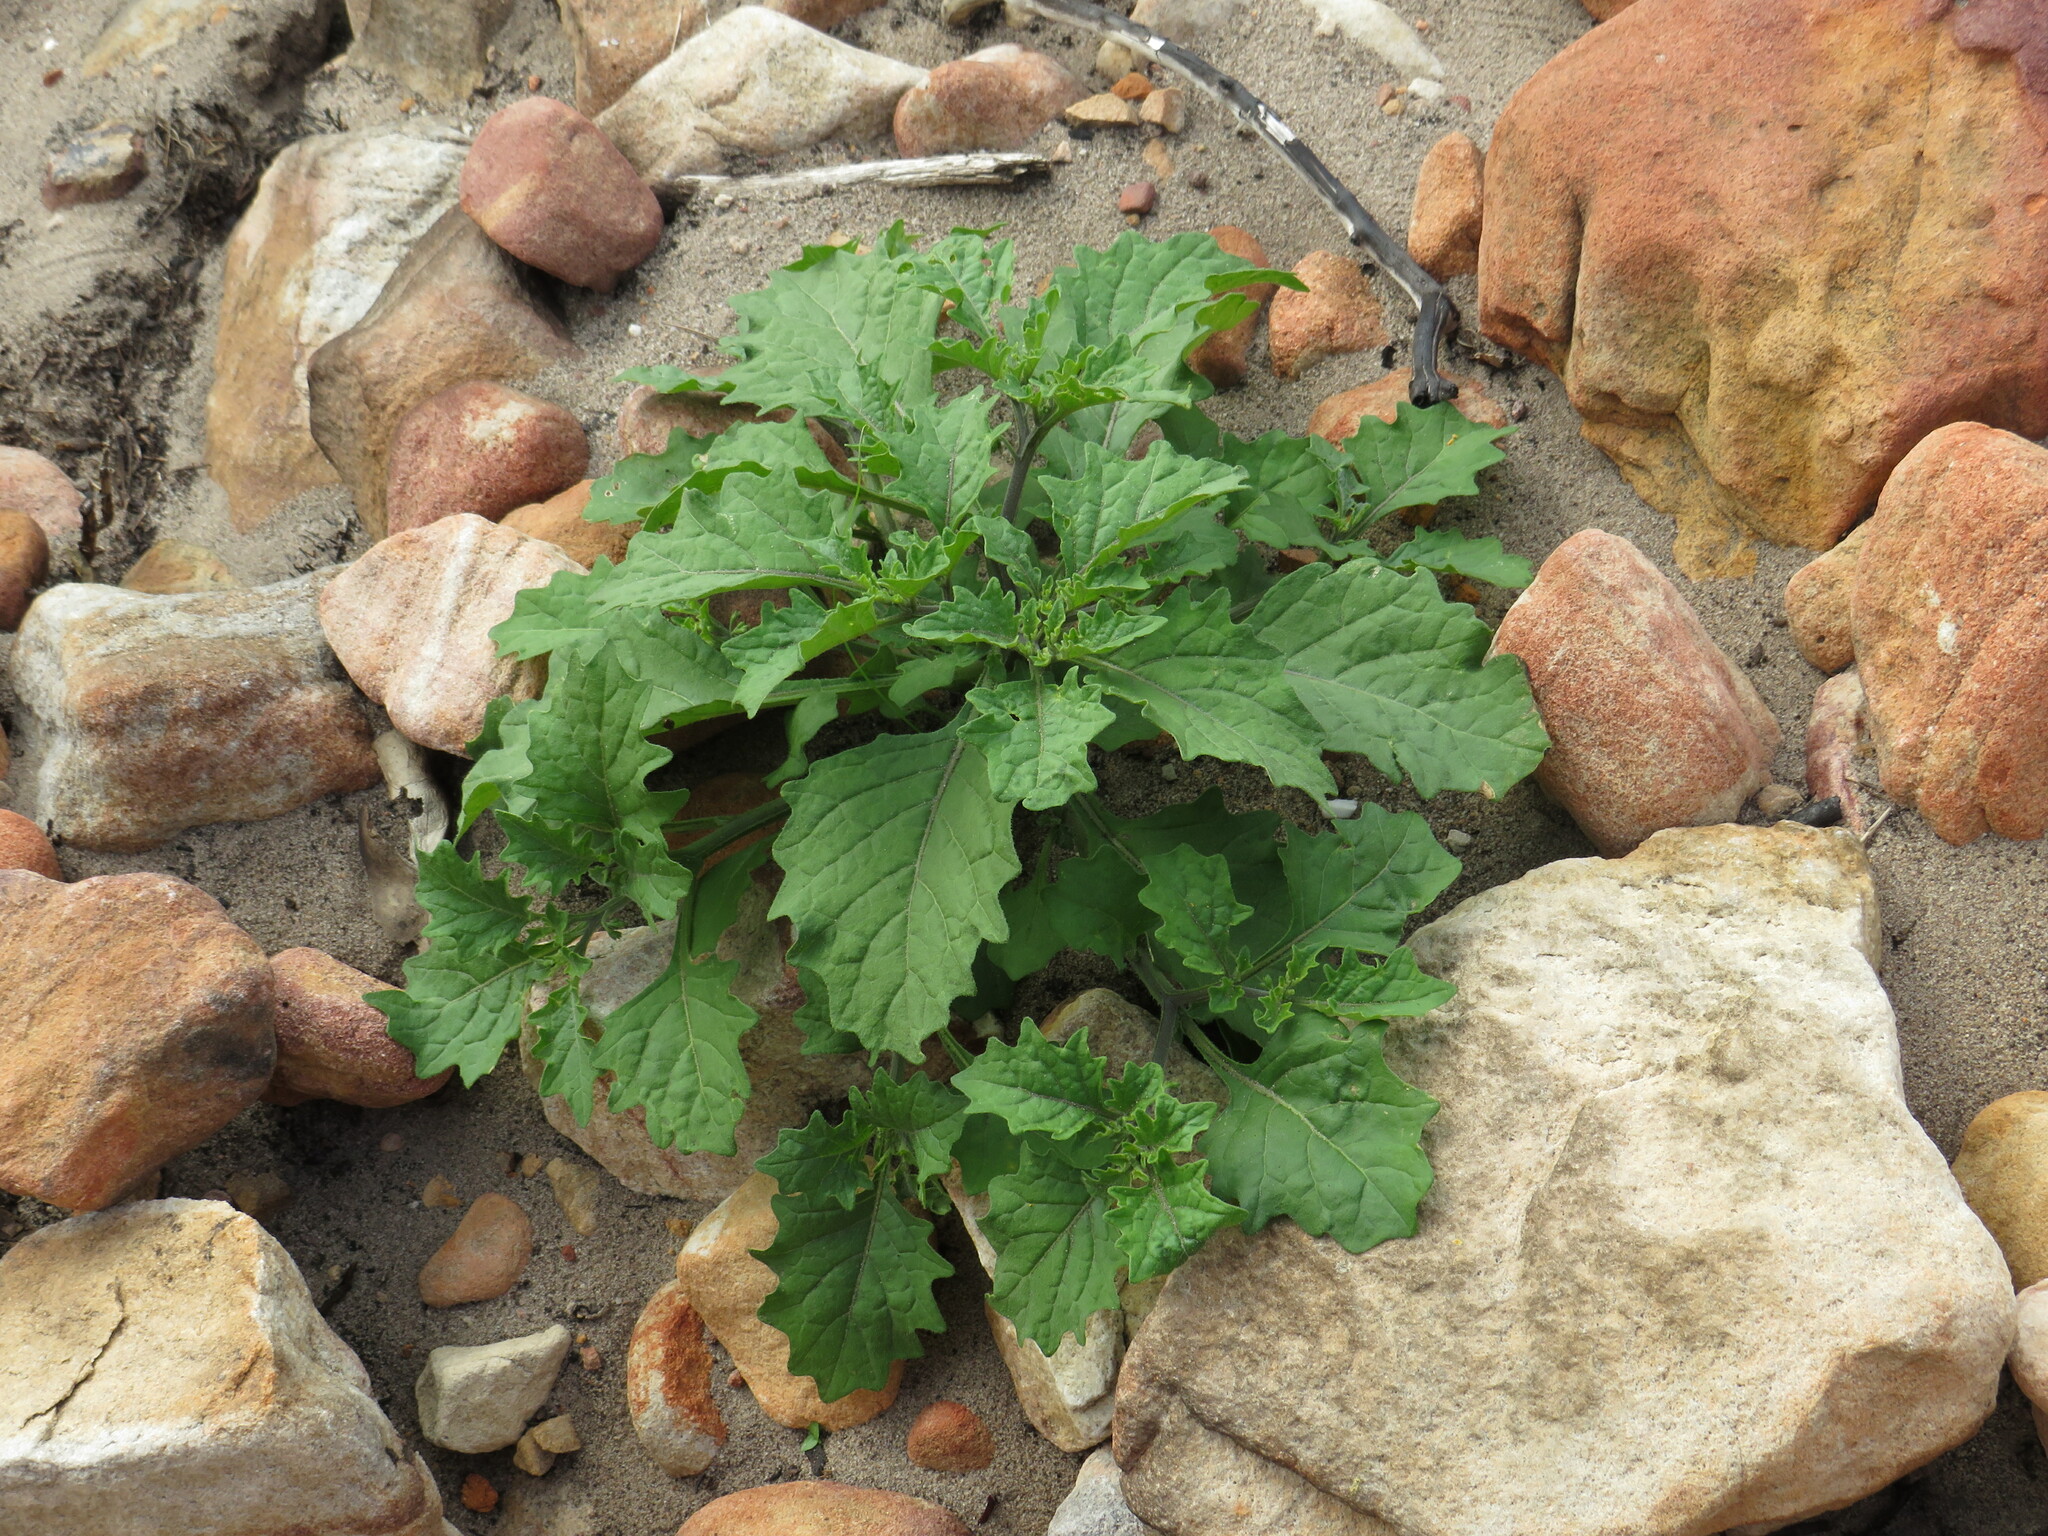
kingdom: Plantae
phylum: Tracheophyta
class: Magnoliopsida
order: Solanales
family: Solanaceae
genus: Solanum
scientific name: Solanum retroflexum
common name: Wonderberry
